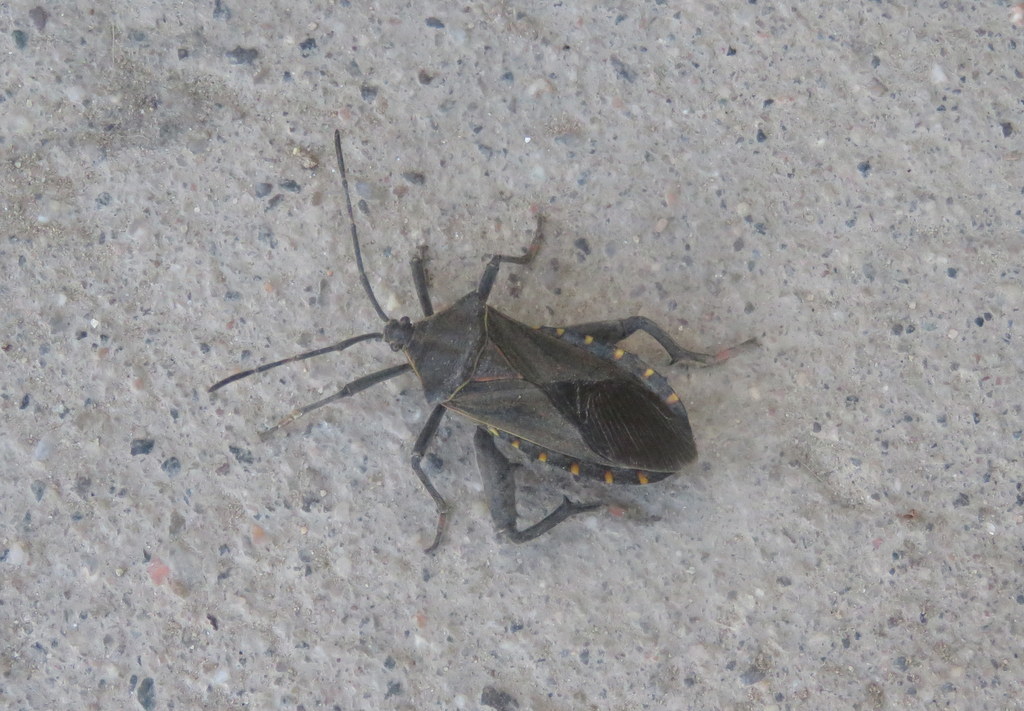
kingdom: Animalia
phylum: Arthropoda
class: Insecta
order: Hemiptera
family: Coreidae
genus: Pachylis
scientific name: Pachylis argentinus
